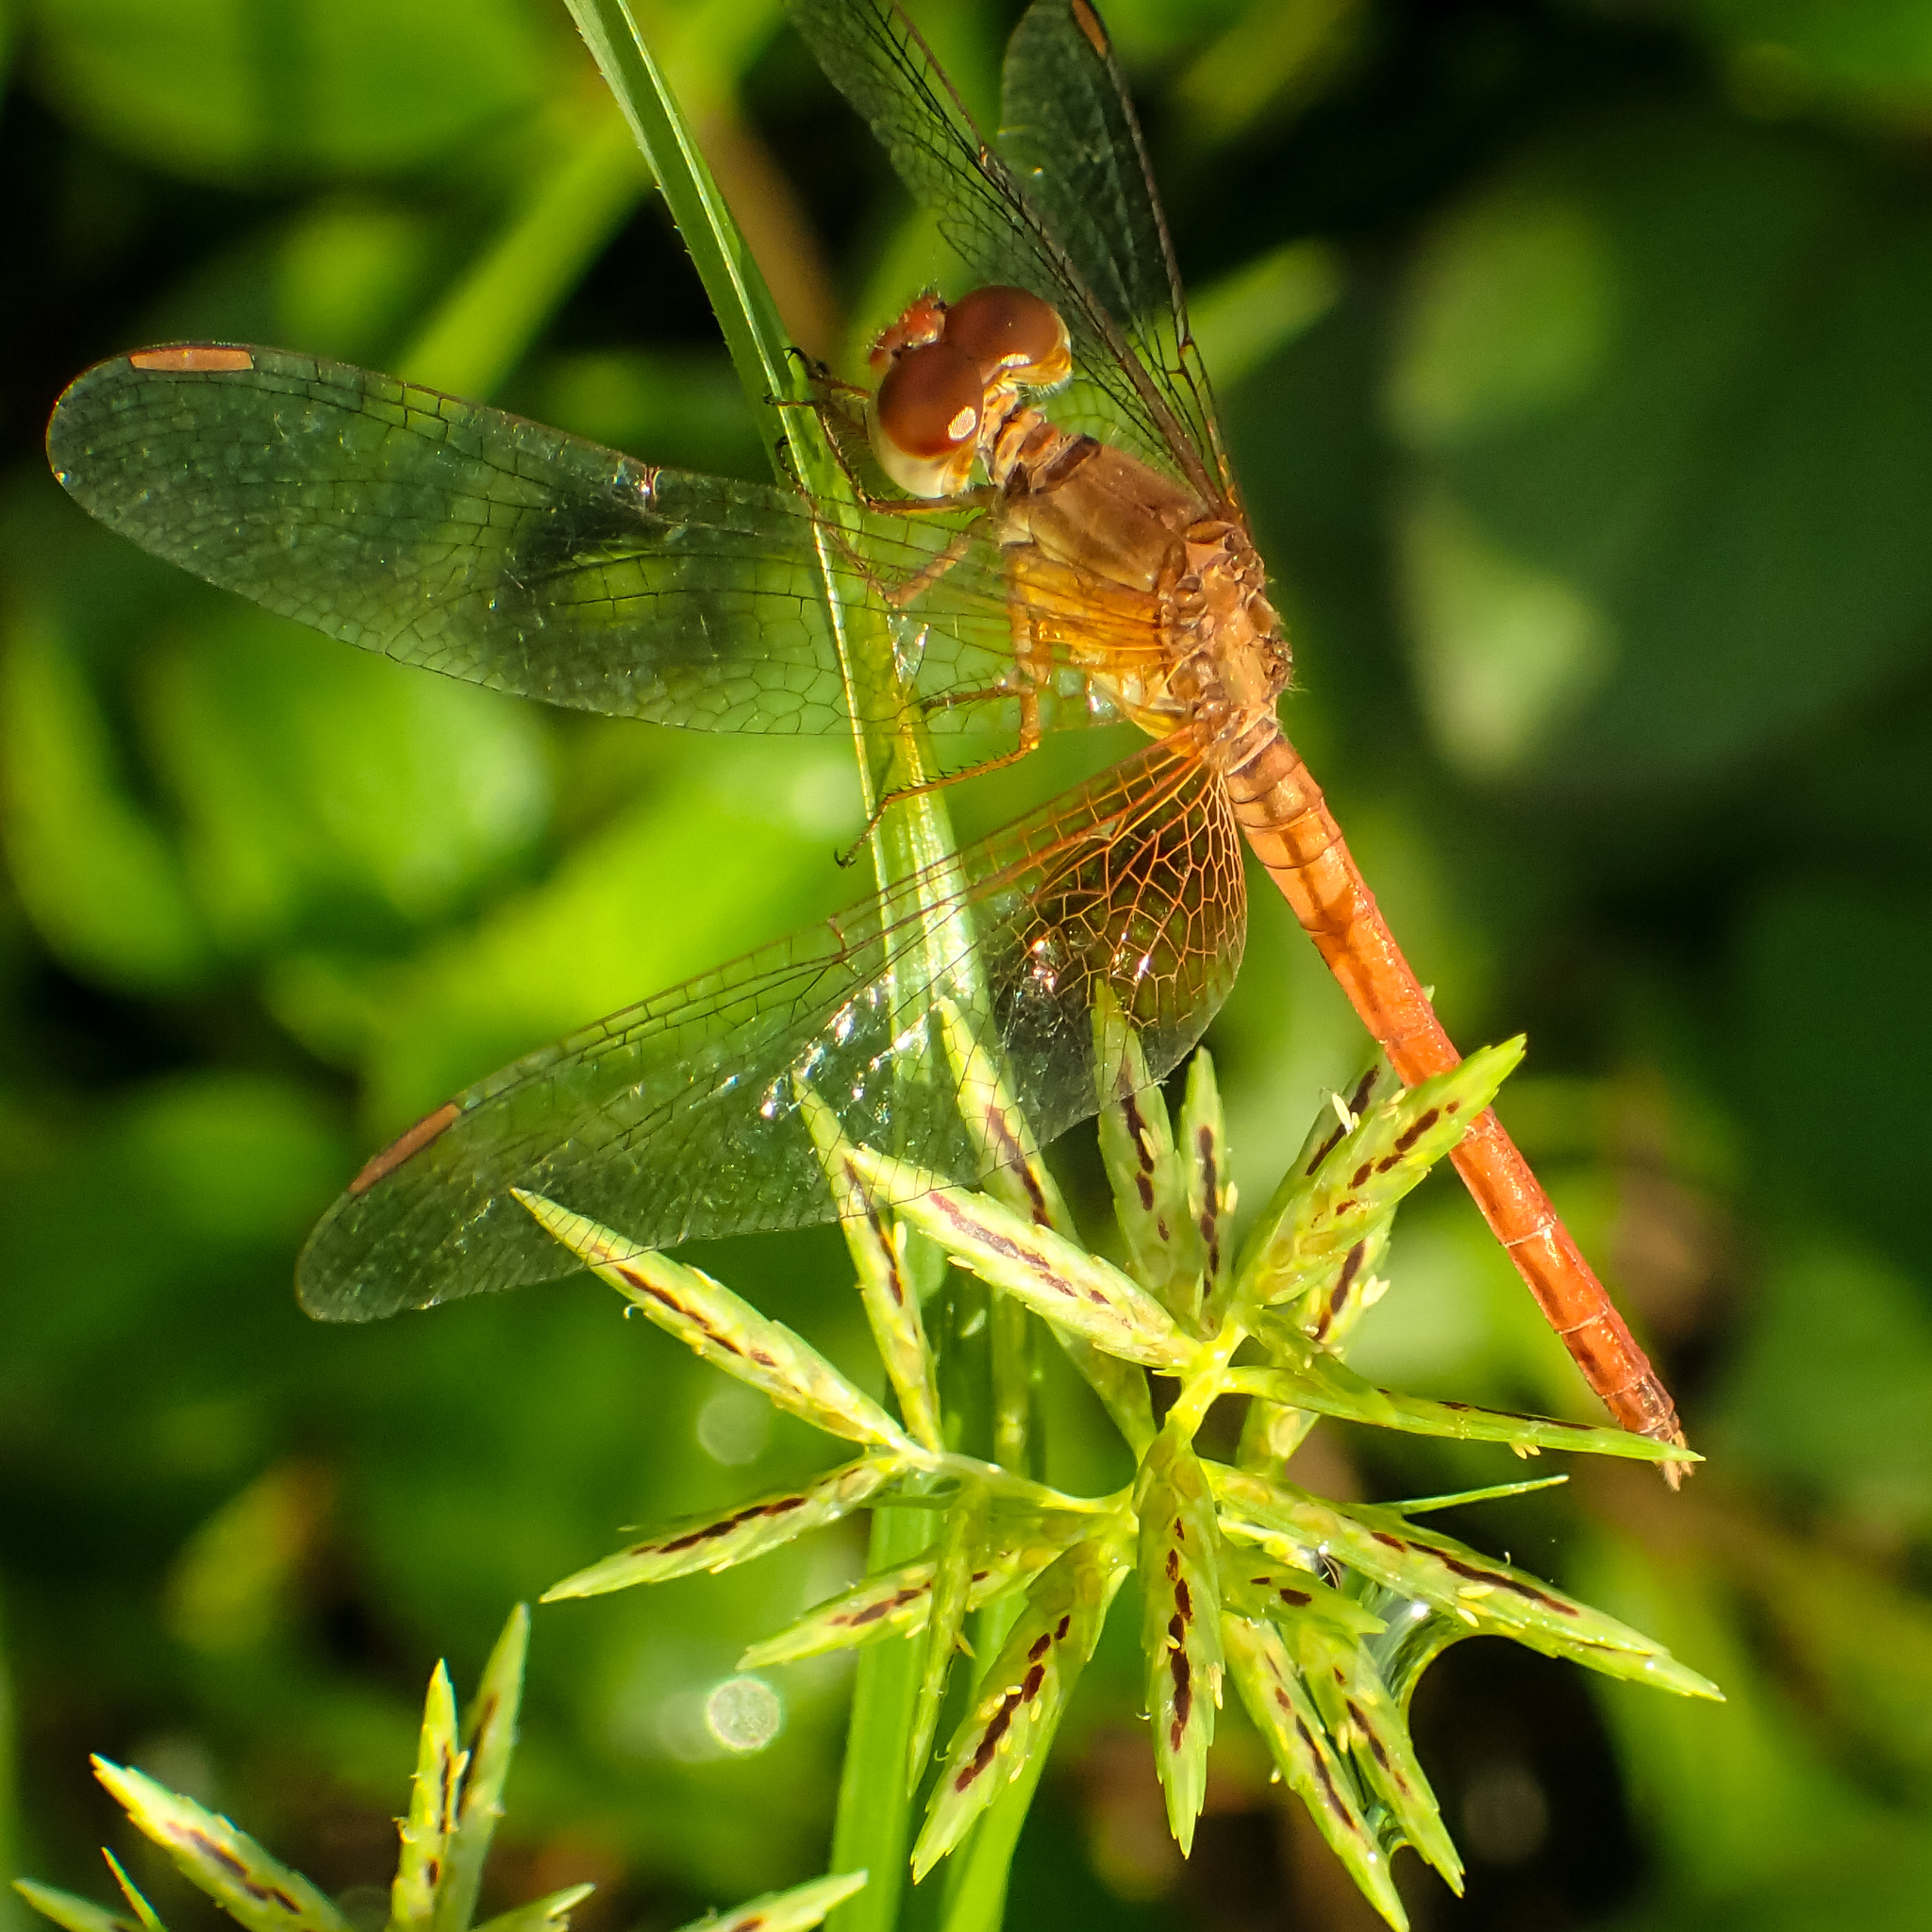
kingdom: Animalia
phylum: Arthropoda
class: Insecta
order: Odonata
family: Libellulidae
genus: Neurothemis
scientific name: Neurothemis intermedia
